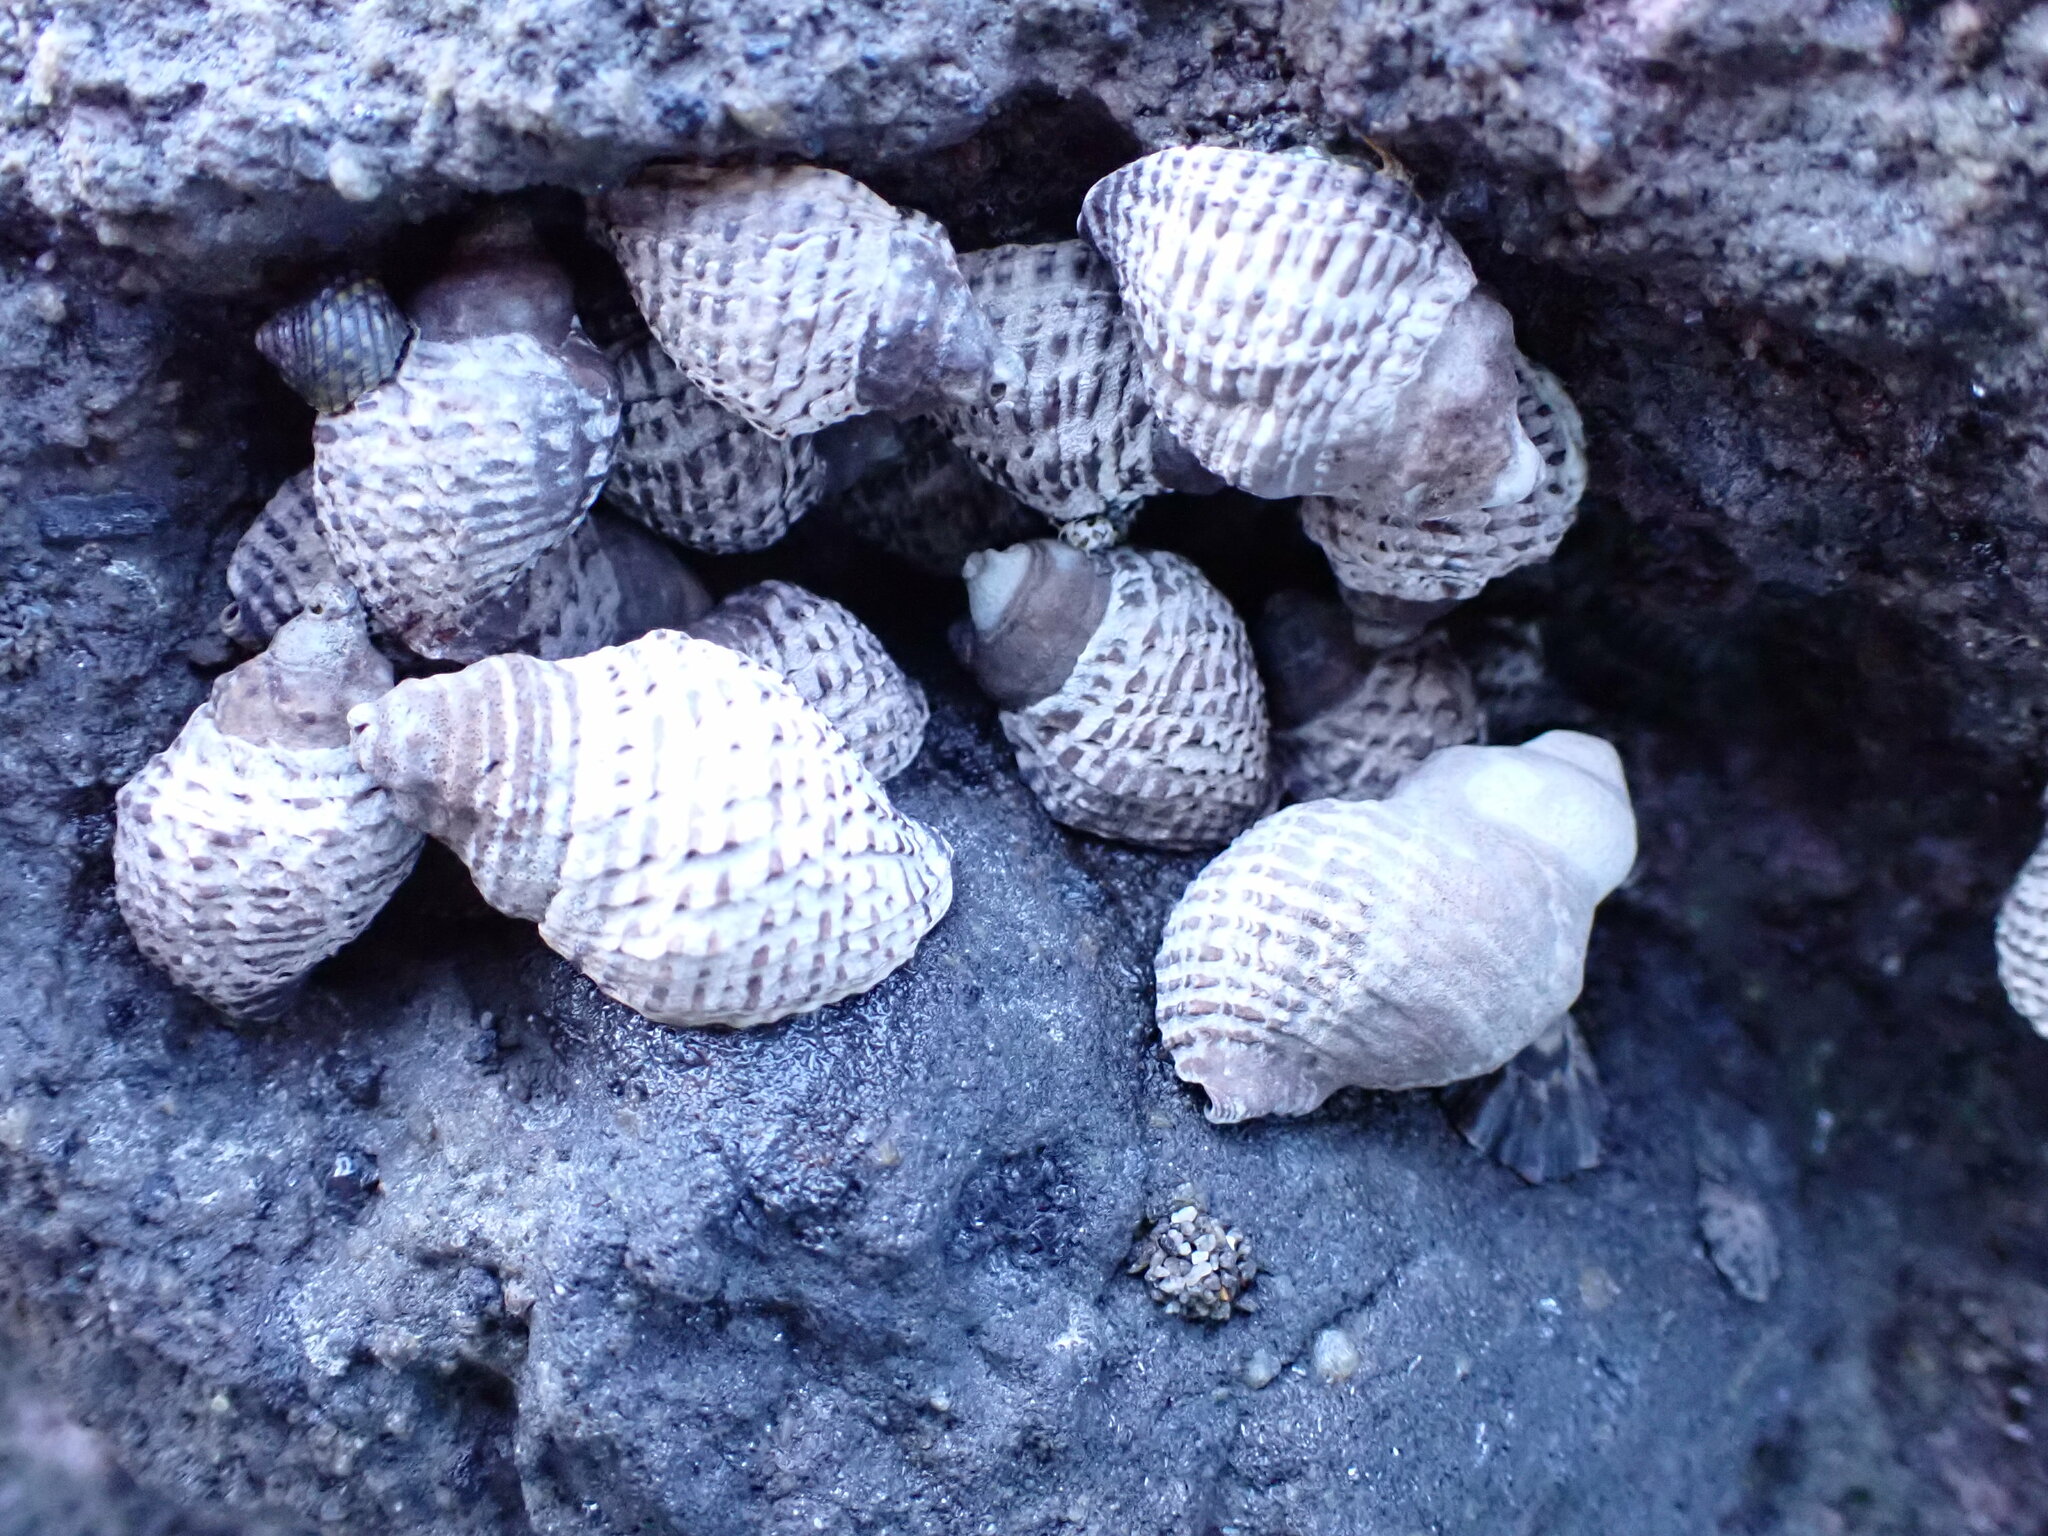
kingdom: Animalia
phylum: Mollusca
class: Gastropoda
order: Neogastropoda
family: Muricidae
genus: Haustrum
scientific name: Haustrum
